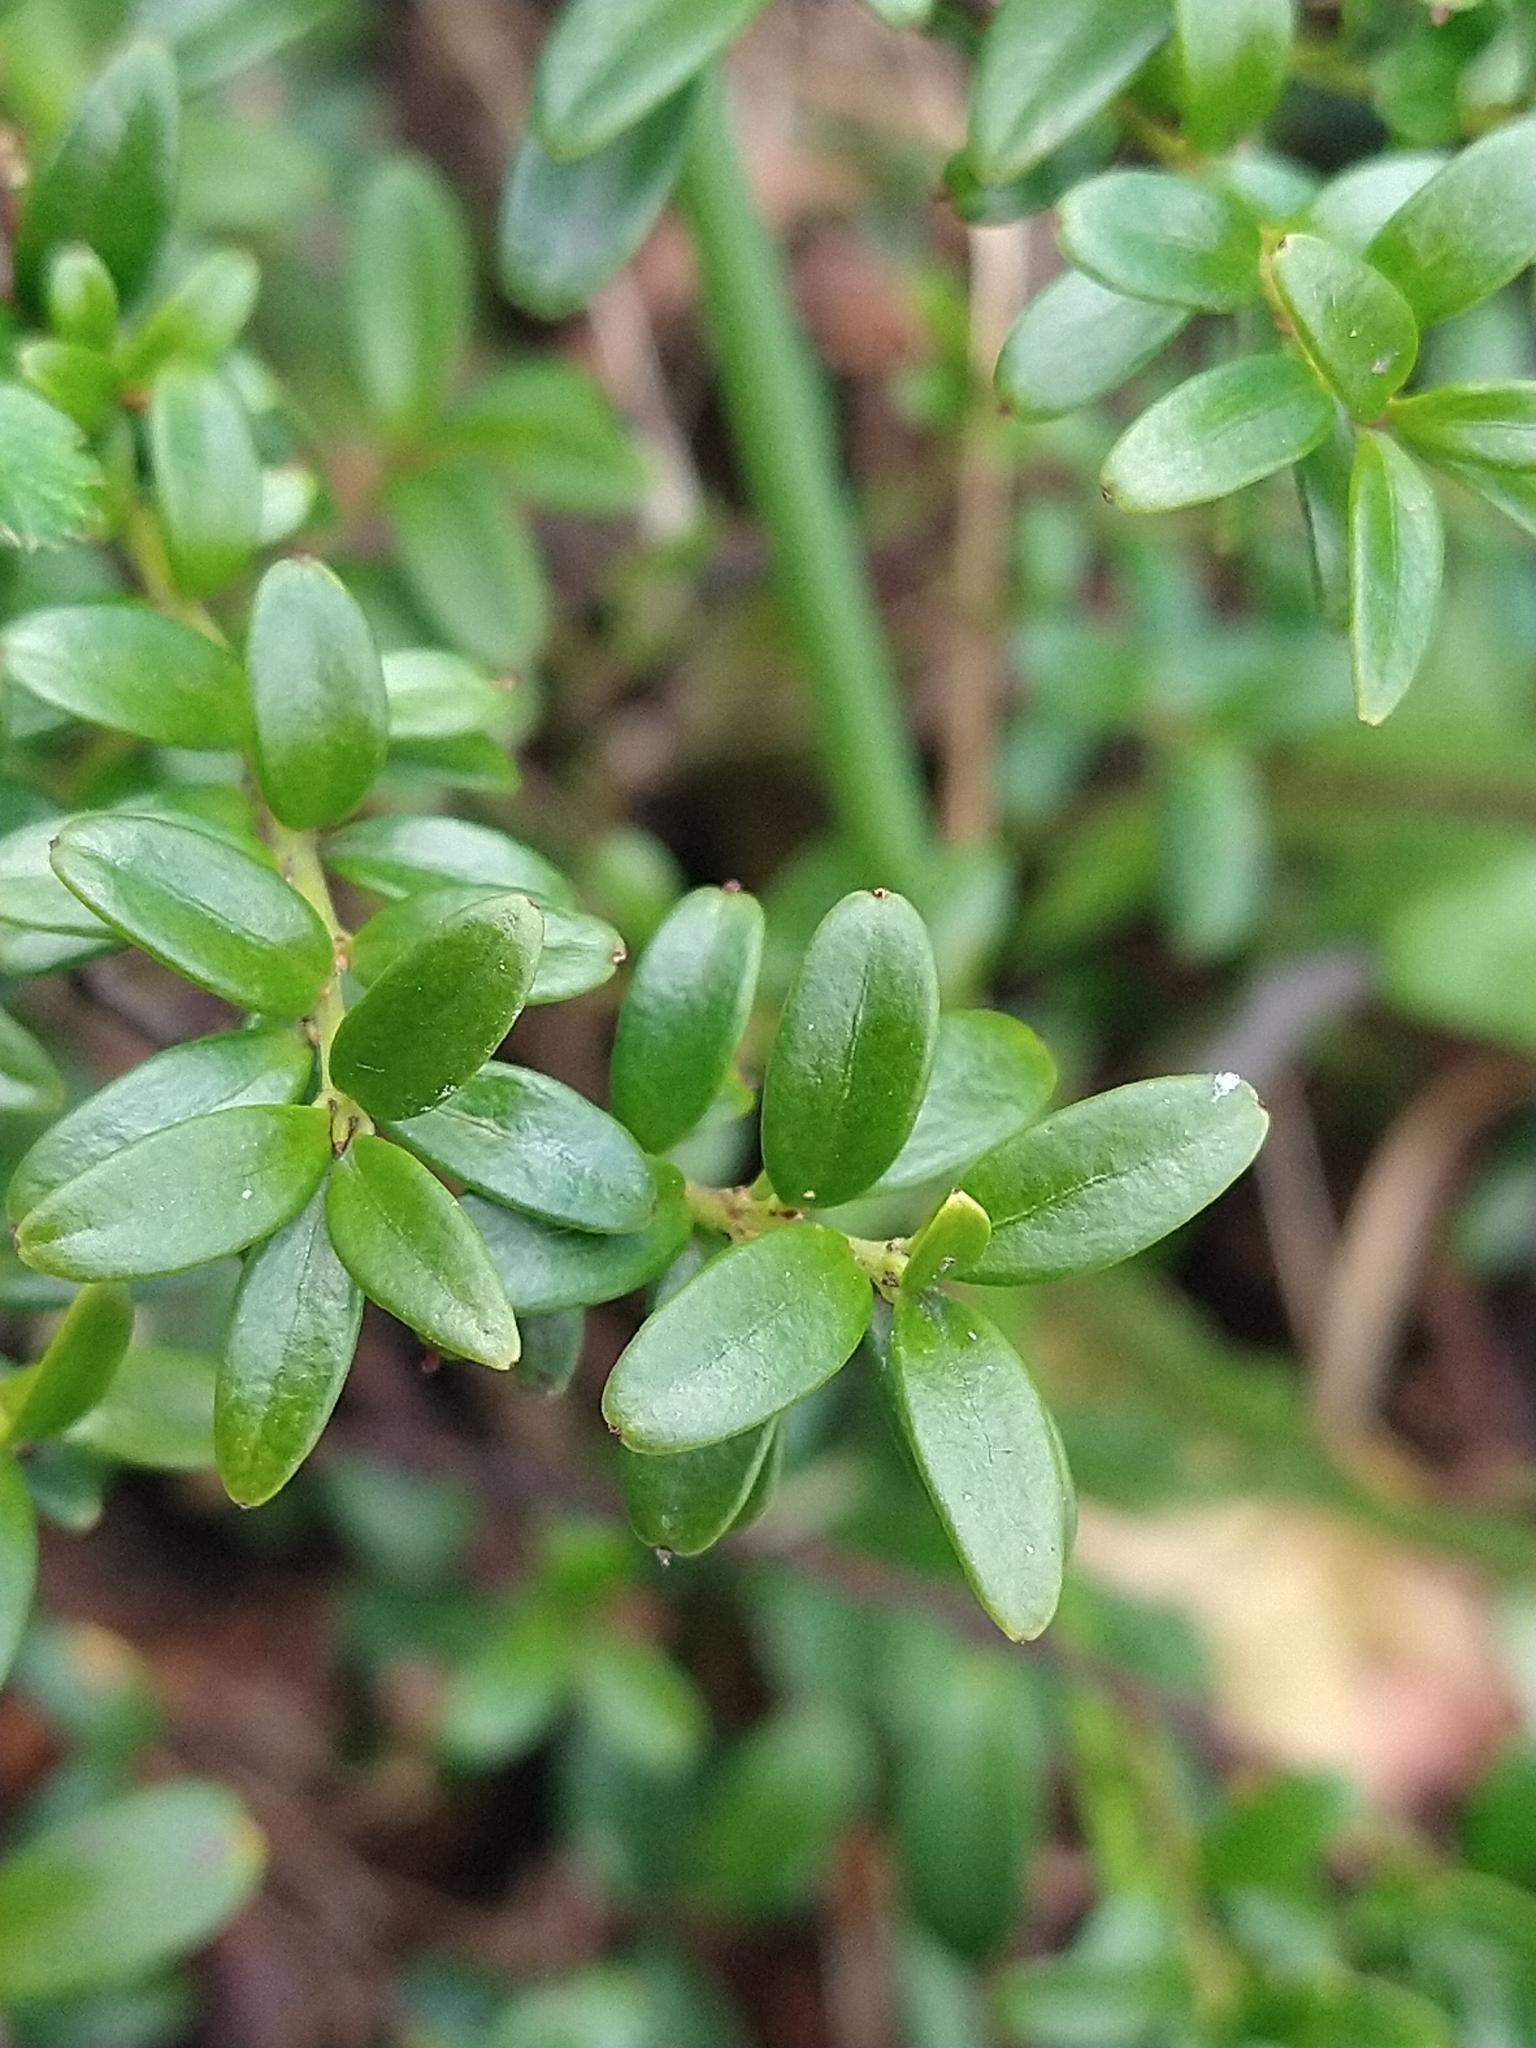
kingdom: Plantae
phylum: Tracheophyta
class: Magnoliopsida
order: Celastrales
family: Celastraceae
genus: Maytenus
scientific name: Maytenus disticha
